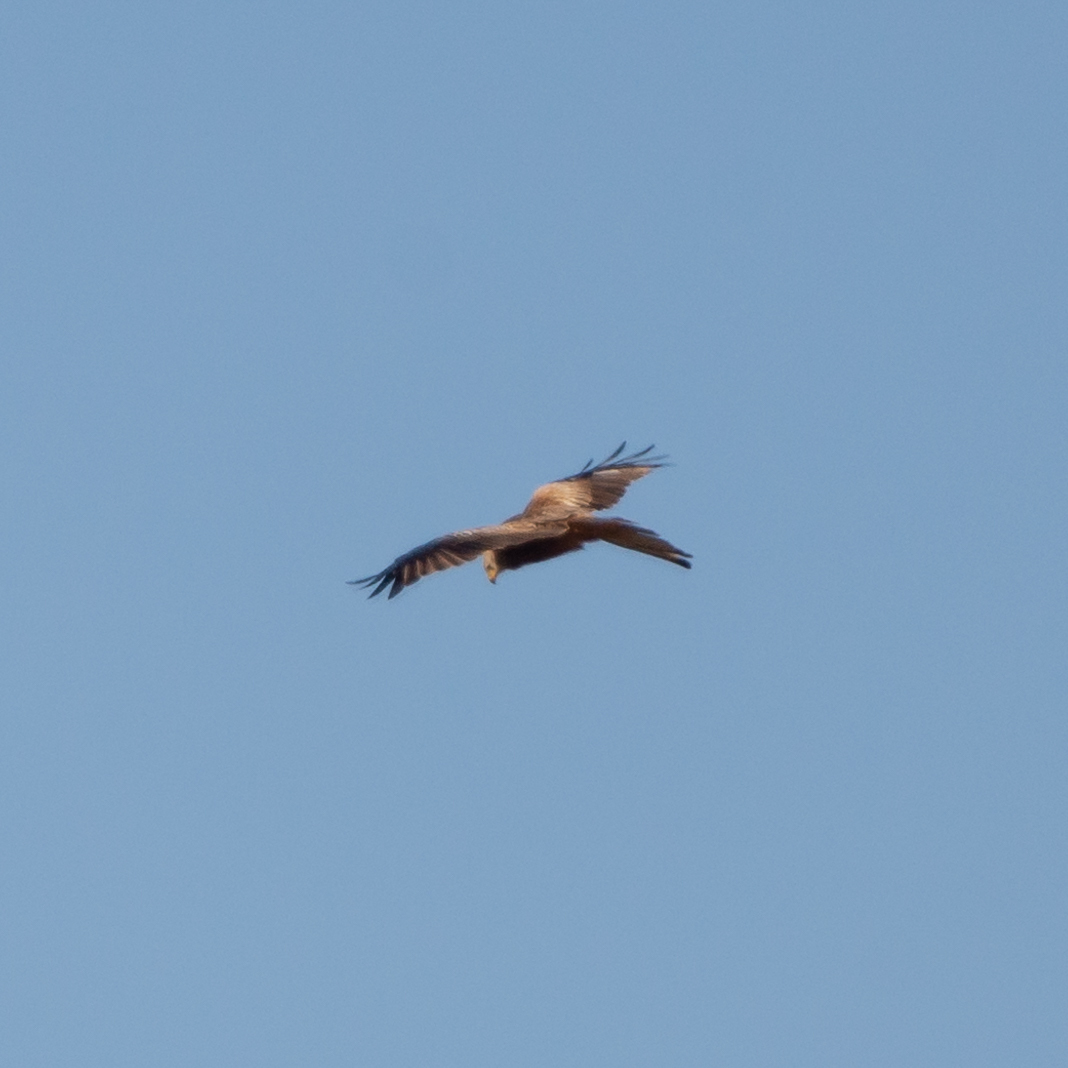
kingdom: Animalia
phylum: Chordata
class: Aves
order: Accipitriformes
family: Accipitridae
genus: Milvus
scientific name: Milvus milvus
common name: Red kite
